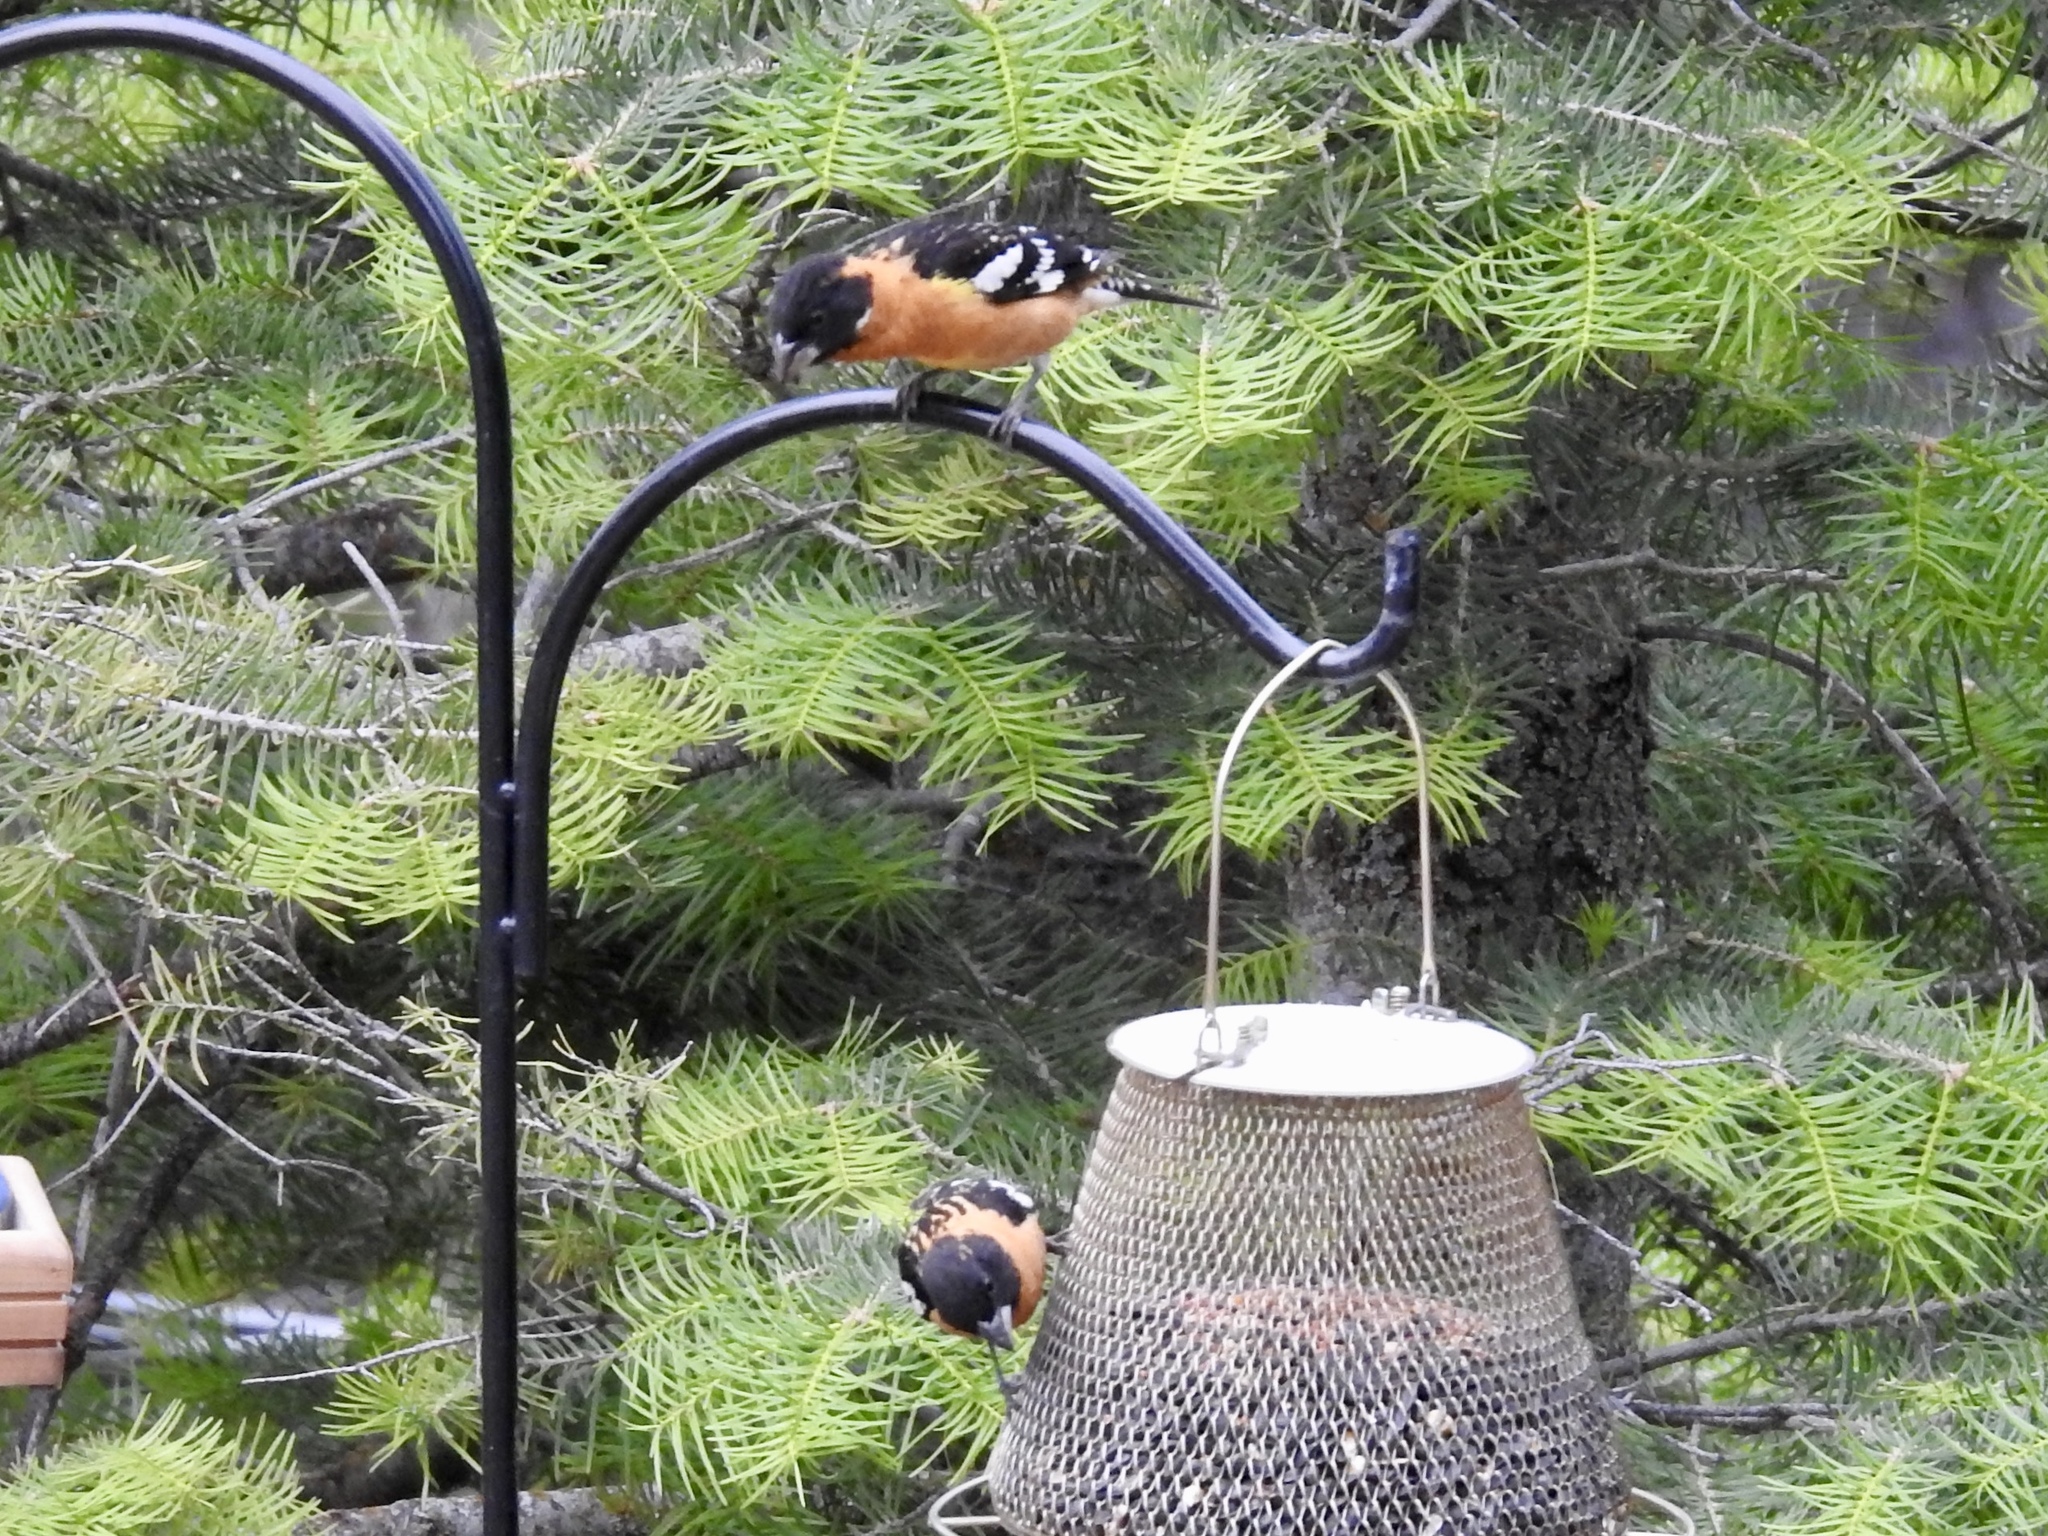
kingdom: Animalia
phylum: Chordata
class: Aves
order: Passeriformes
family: Cardinalidae
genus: Pheucticus
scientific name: Pheucticus melanocephalus
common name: Black-headed grosbeak
